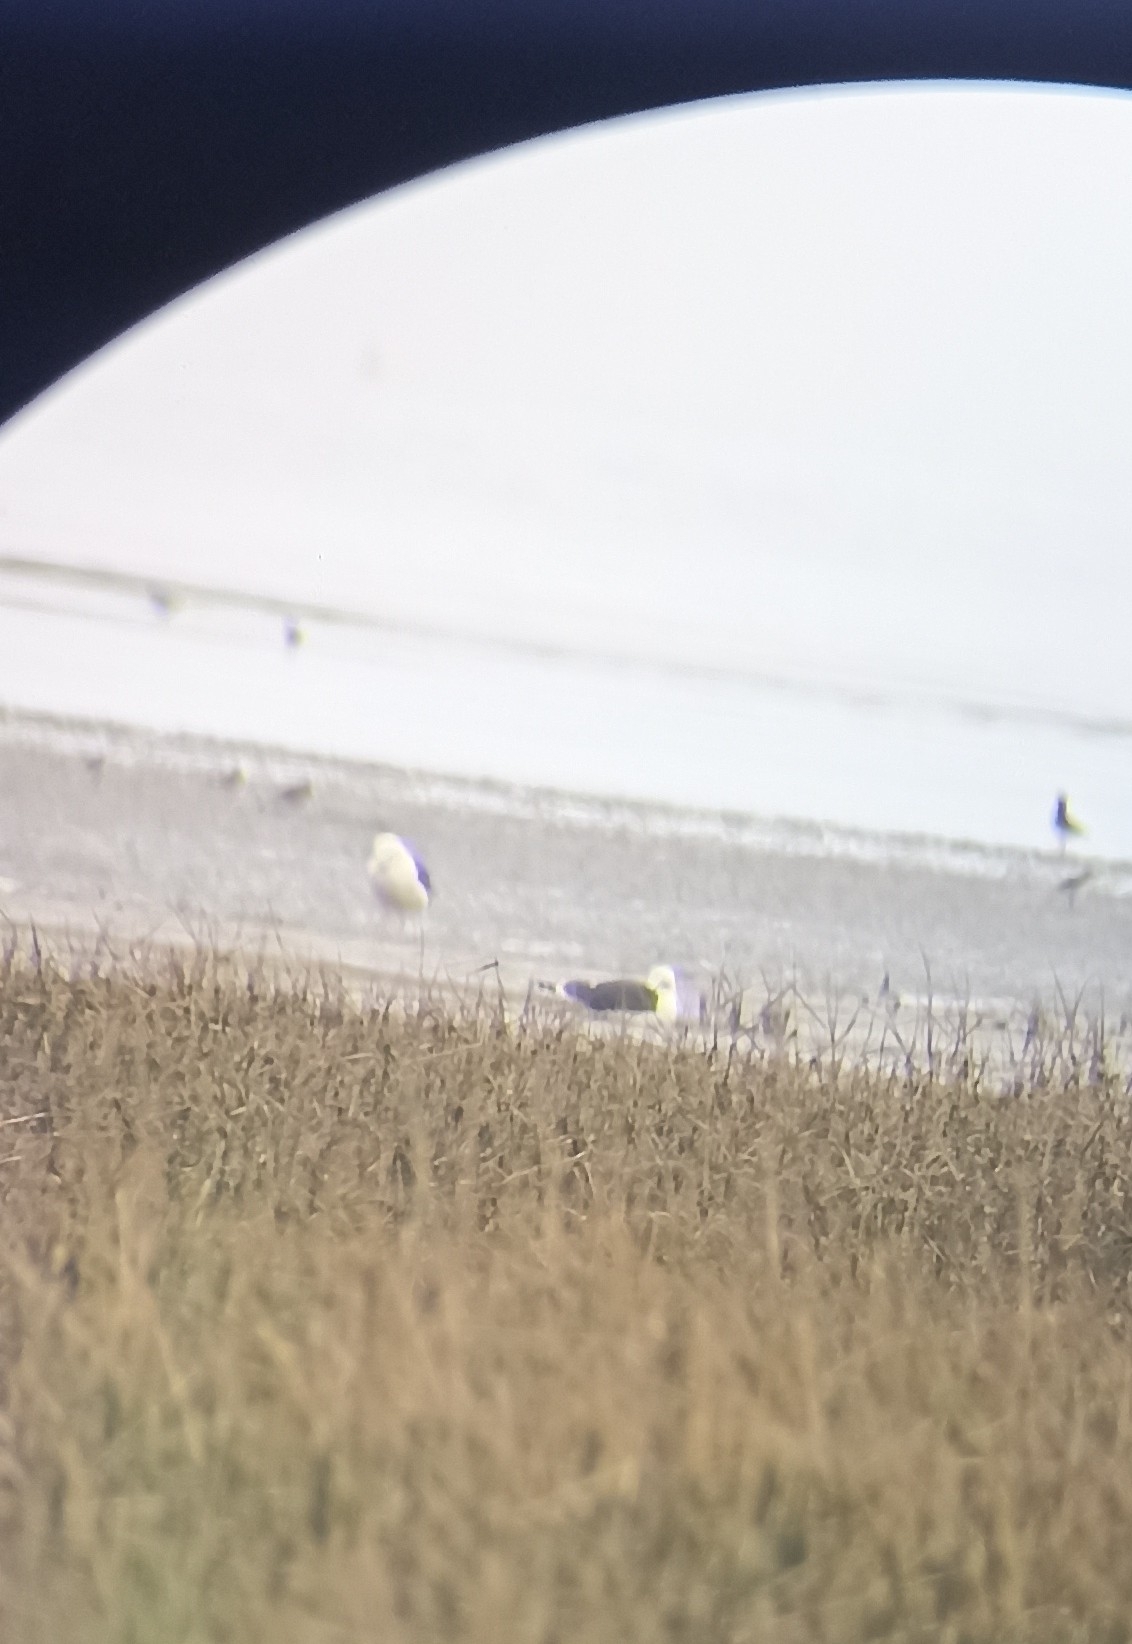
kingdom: Animalia
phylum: Chordata
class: Aves
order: Charadriiformes
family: Laridae
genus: Larus
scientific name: Larus fuscus
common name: Lesser black-backed gull
